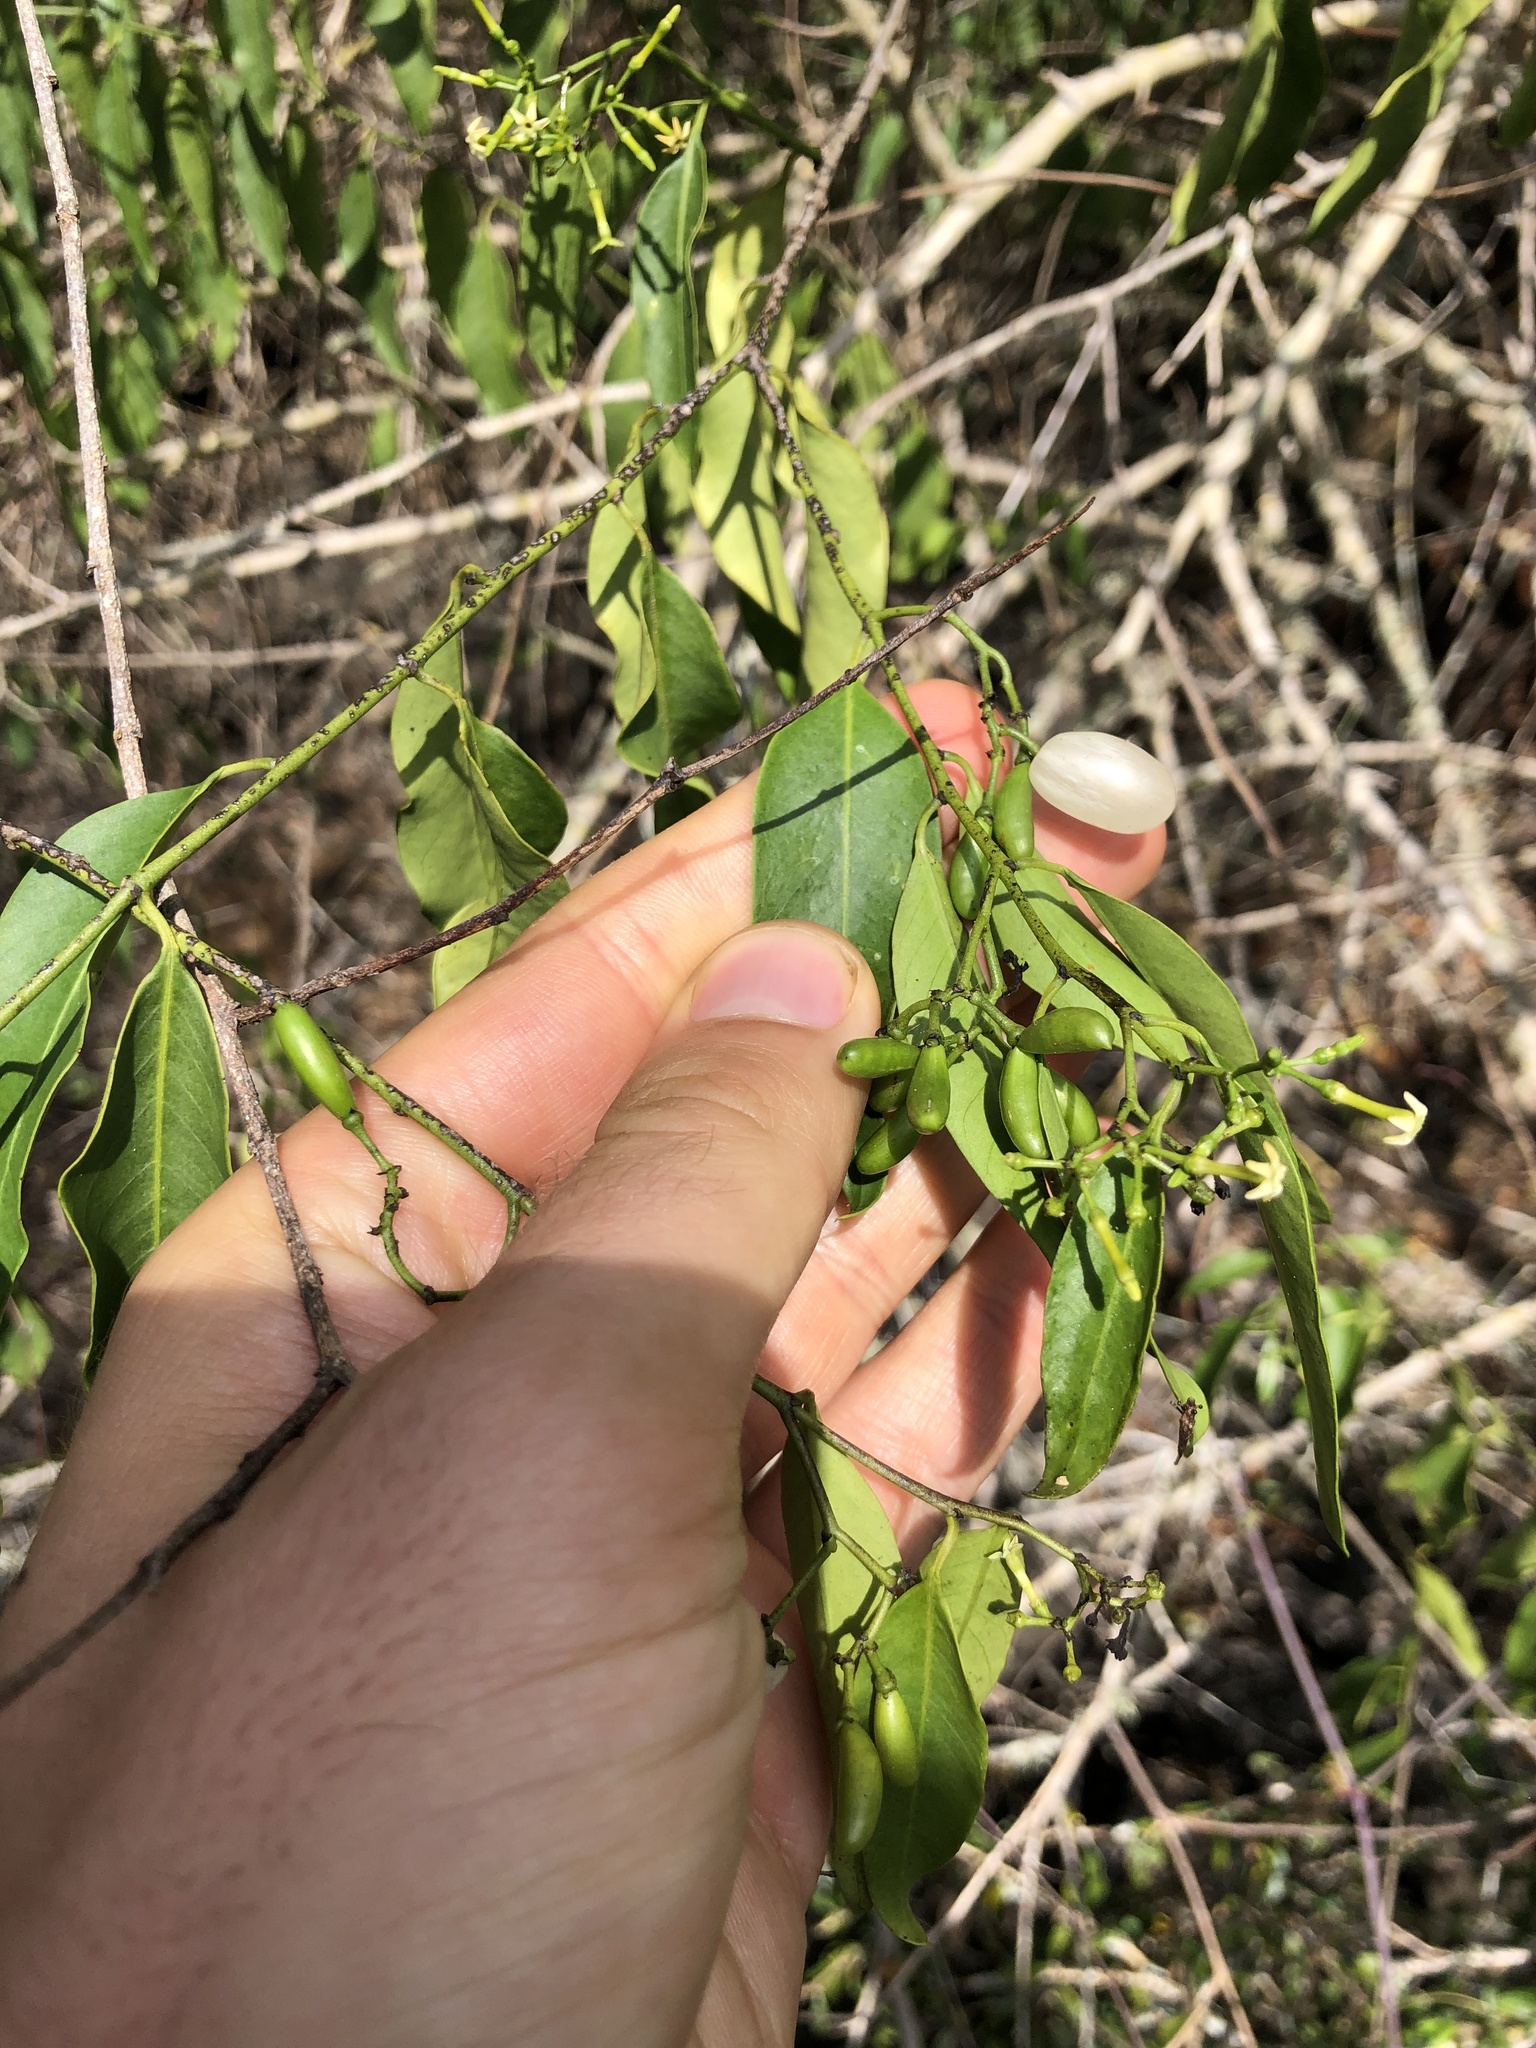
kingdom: Plantae
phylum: Tracheophyta
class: Magnoliopsida
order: Gentianales
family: Apocynaceae
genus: Vallesia
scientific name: Vallesia glabra
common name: Pearlberry
